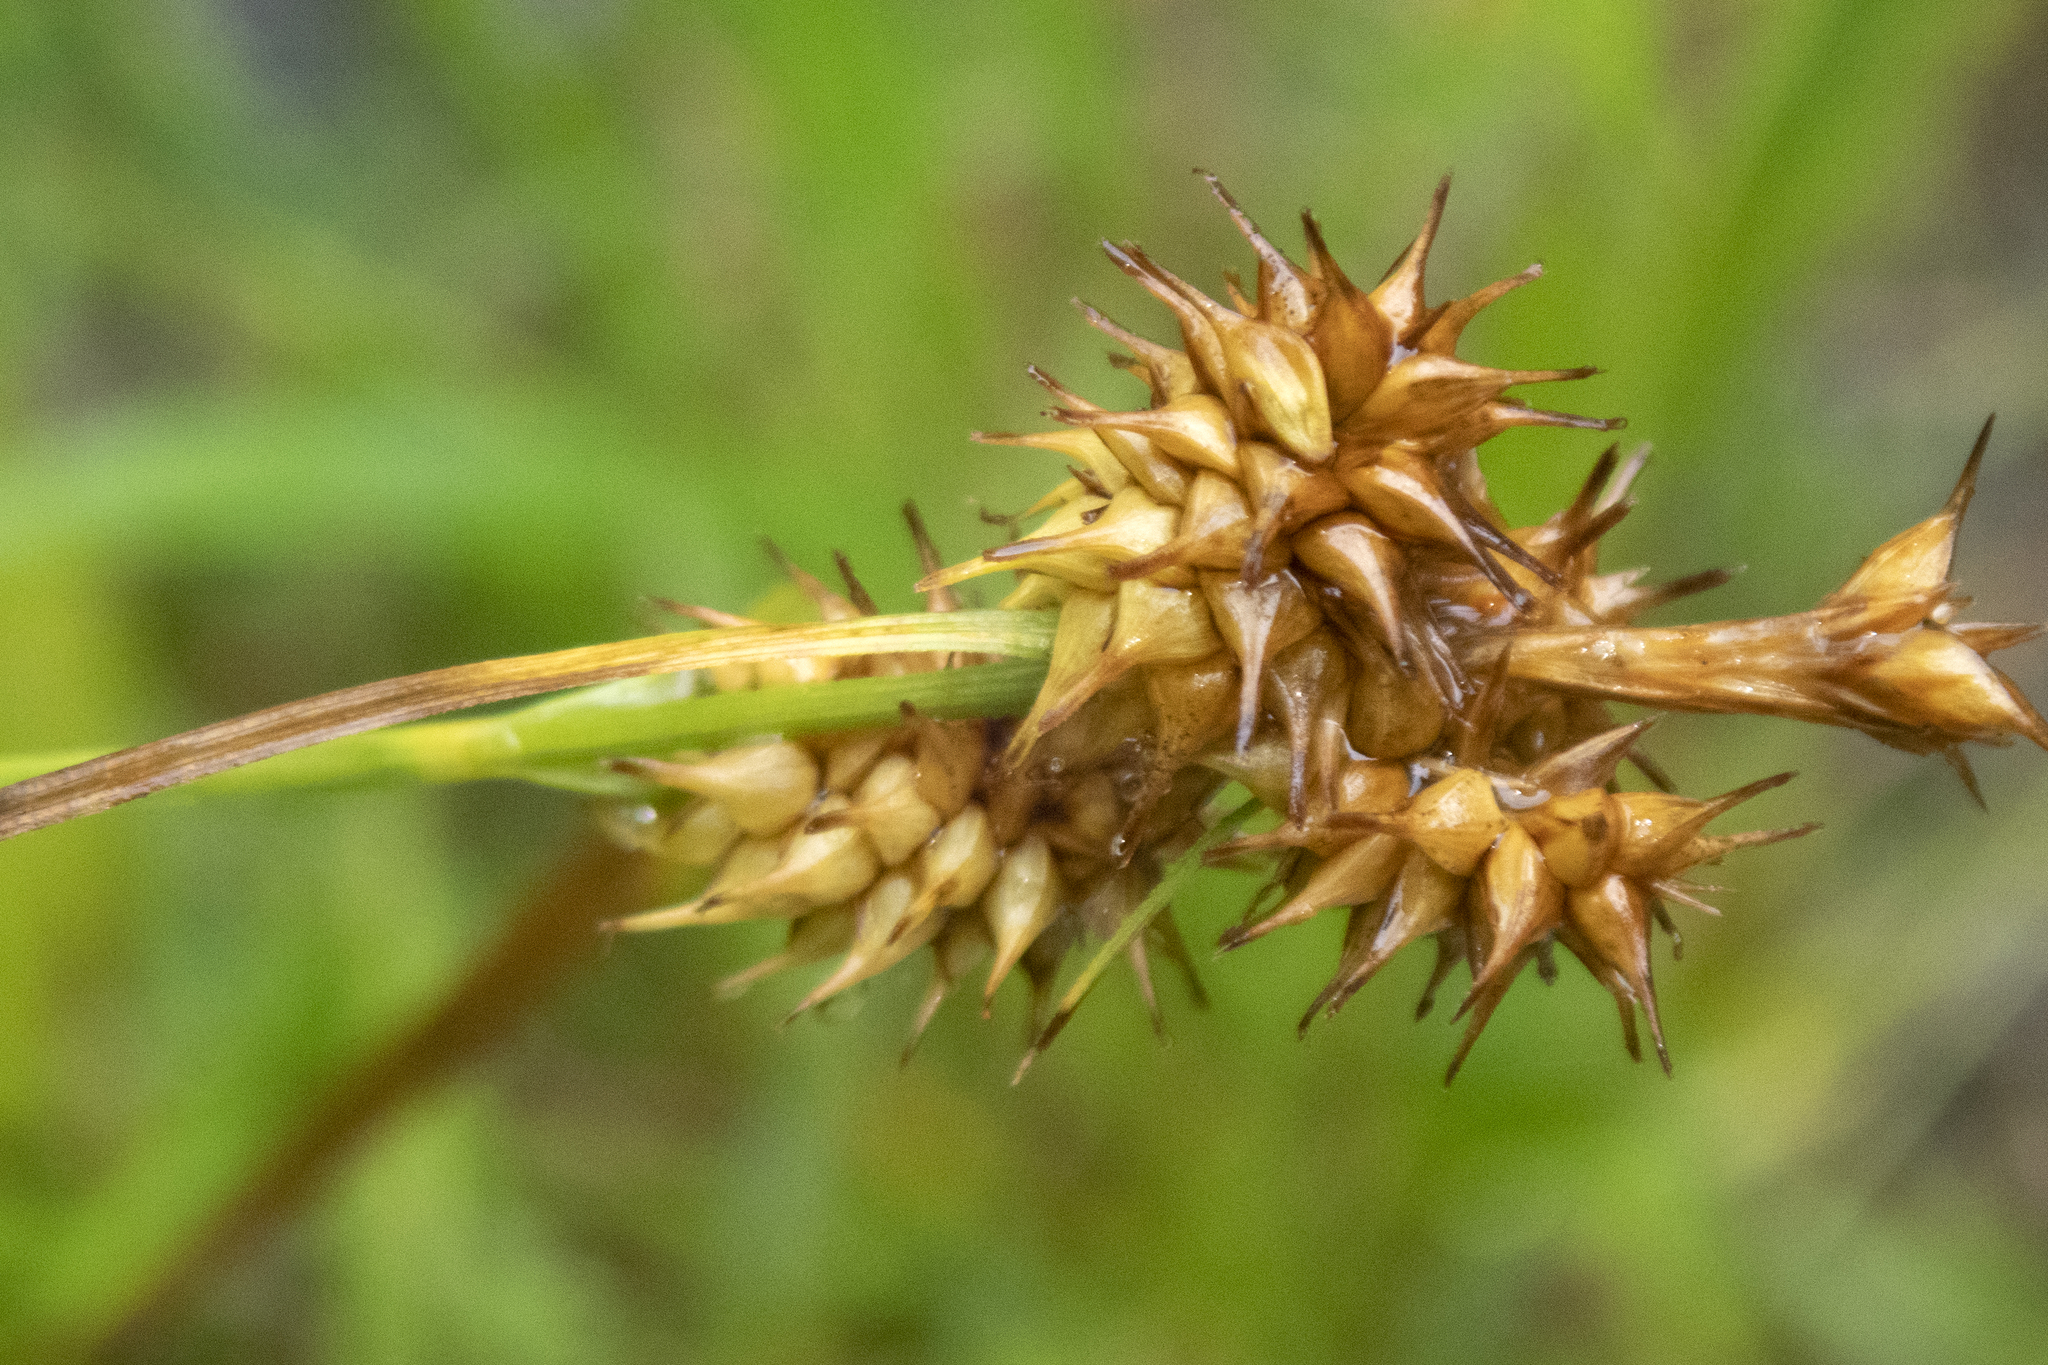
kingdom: Plantae
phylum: Tracheophyta
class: Liliopsida
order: Poales
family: Cyperaceae
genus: Carex
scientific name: Carex flava
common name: Large yellow-sedge
